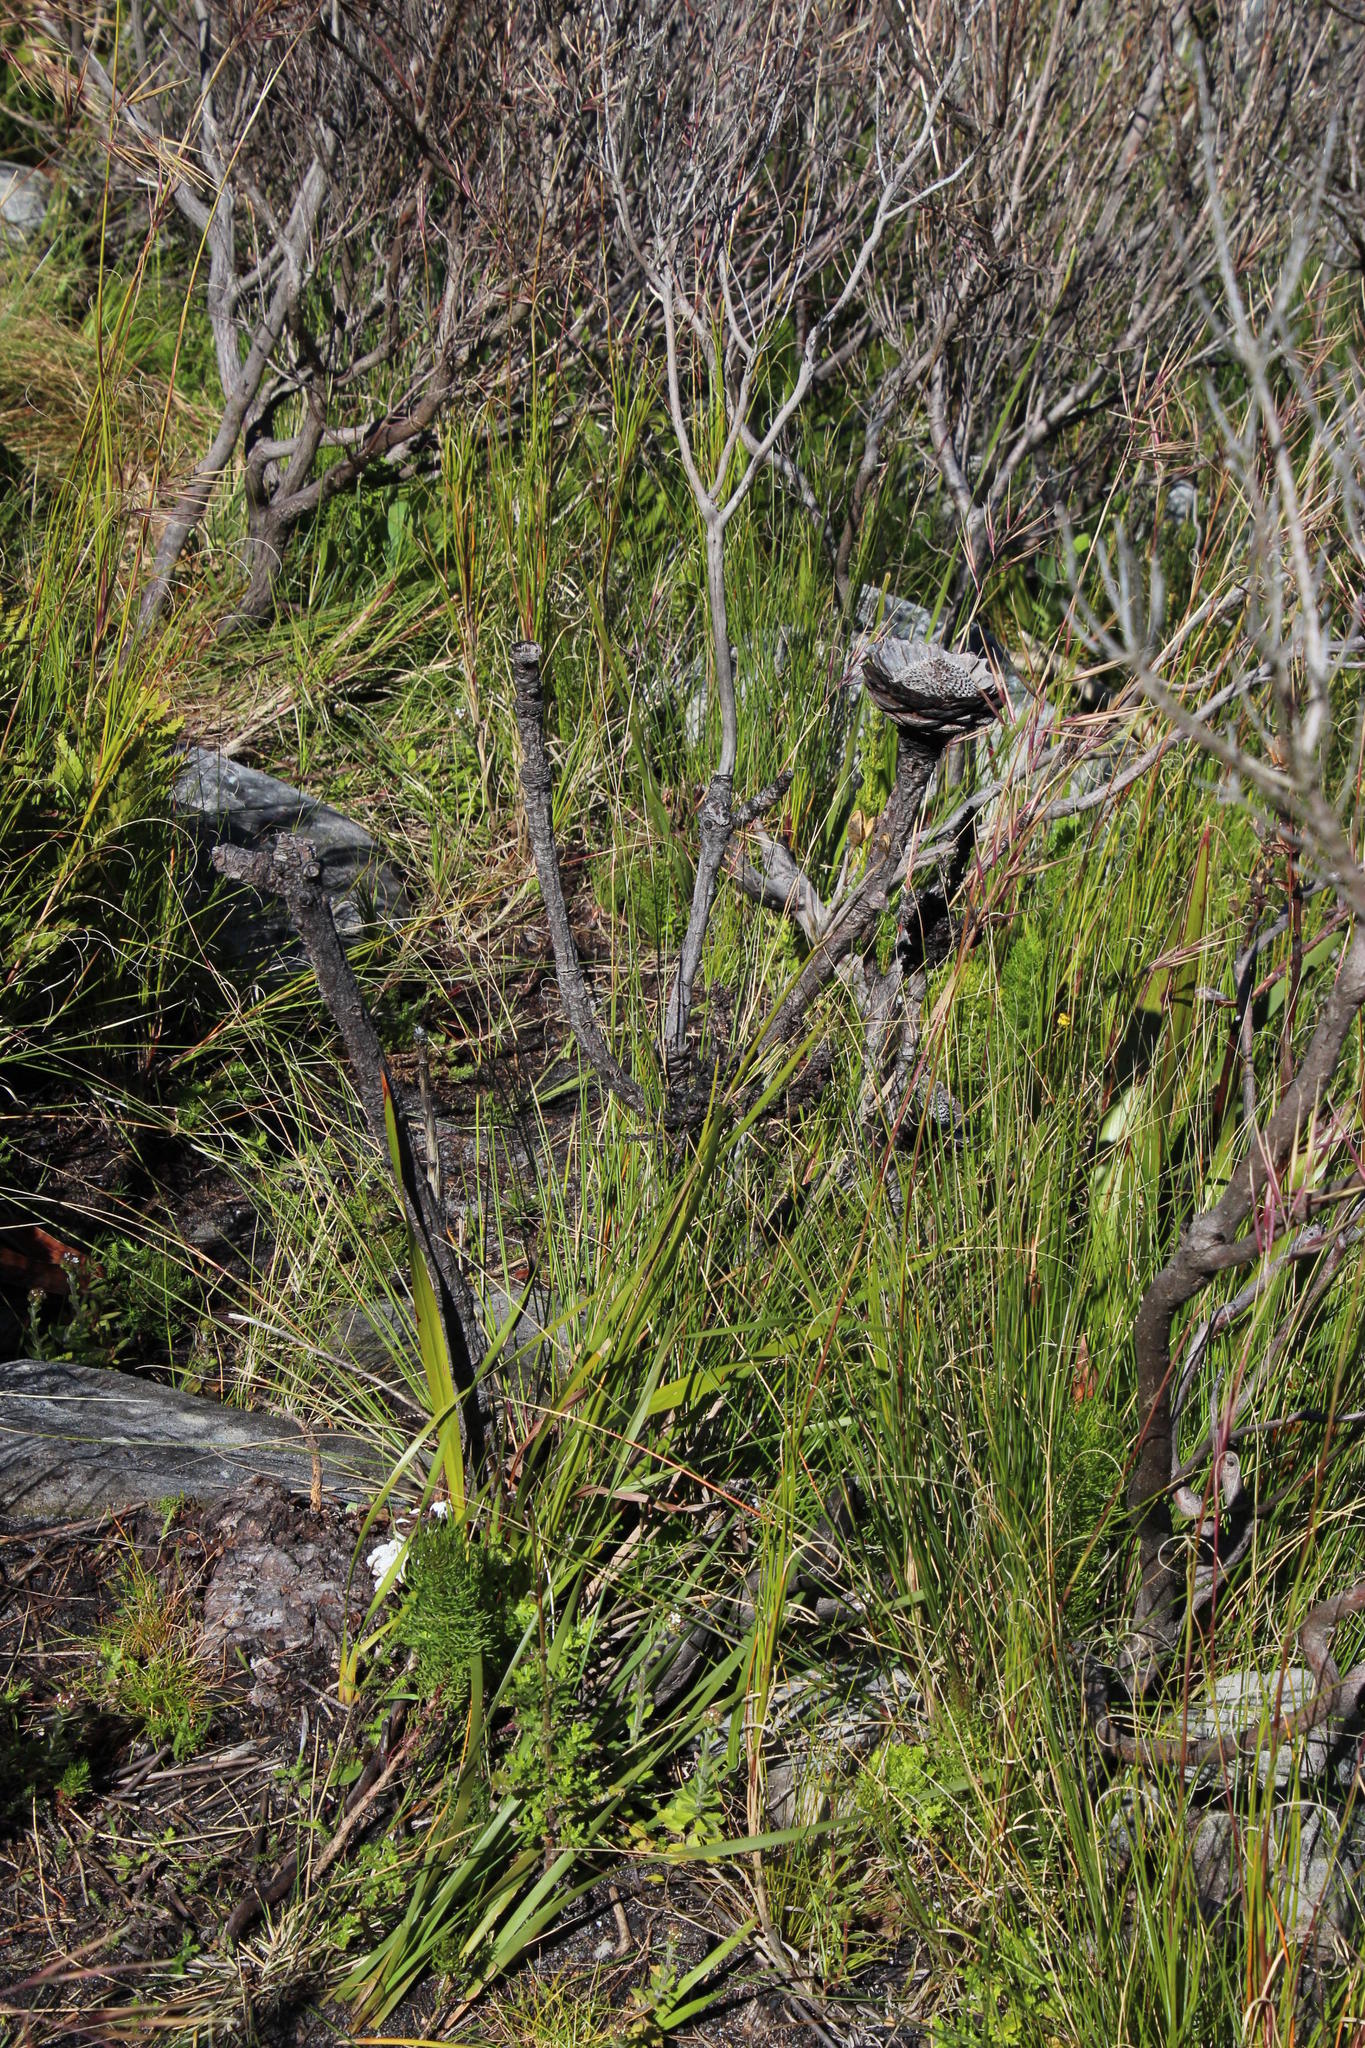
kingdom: Plantae
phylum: Tracheophyta
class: Magnoliopsida
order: Proteales
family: Proteaceae
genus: Protea
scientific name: Protea cynaroides
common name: King protea
